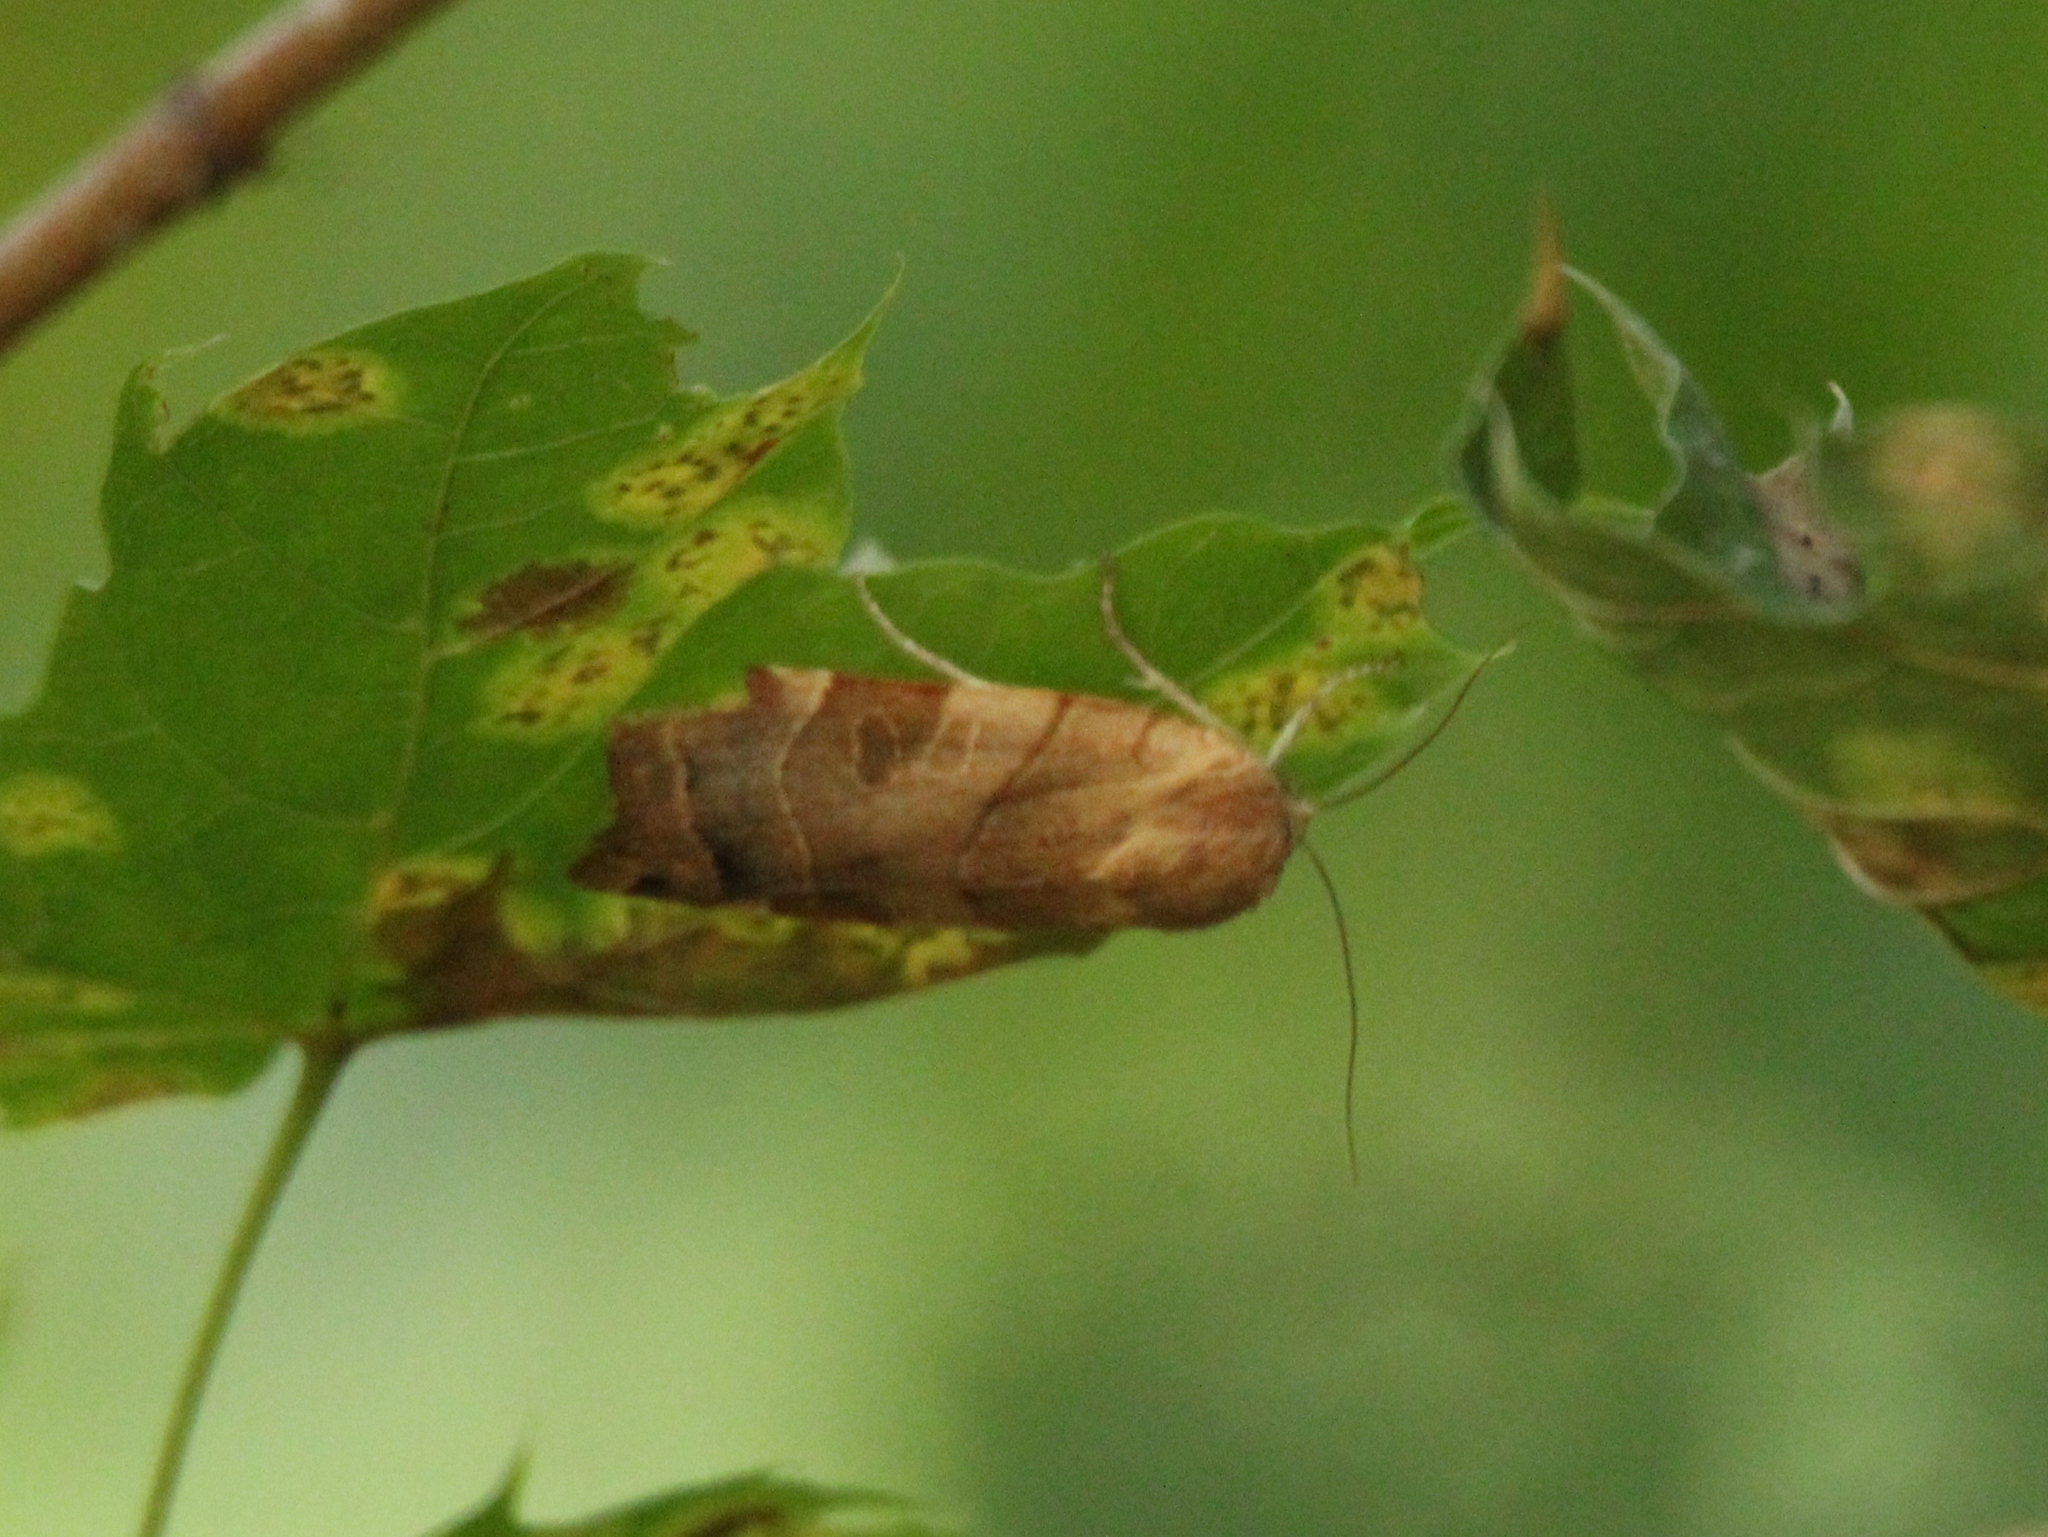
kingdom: Animalia
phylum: Arthropoda
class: Insecta
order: Lepidoptera
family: Noctuidae
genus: Noctua
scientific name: Noctua fimbriata
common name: Broad-bordered yellow underwing
